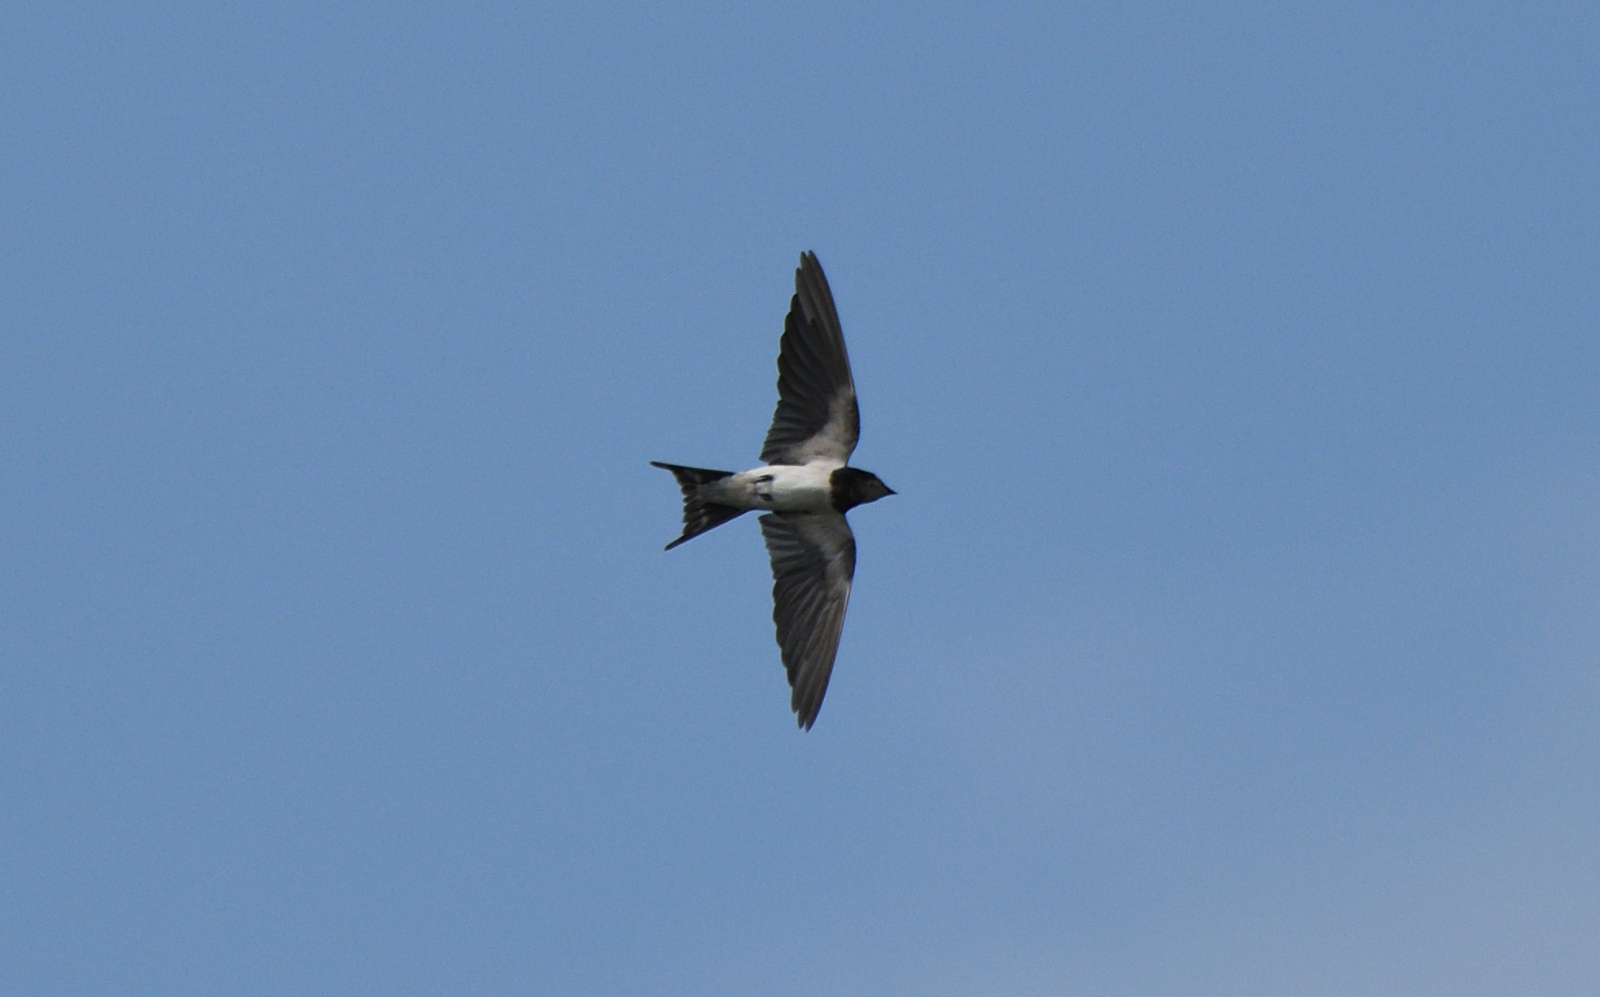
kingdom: Animalia
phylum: Chordata
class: Aves
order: Passeriformes
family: Hirundinidae
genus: Hirundo
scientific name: Hirundo rustica
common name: Barn swallow
